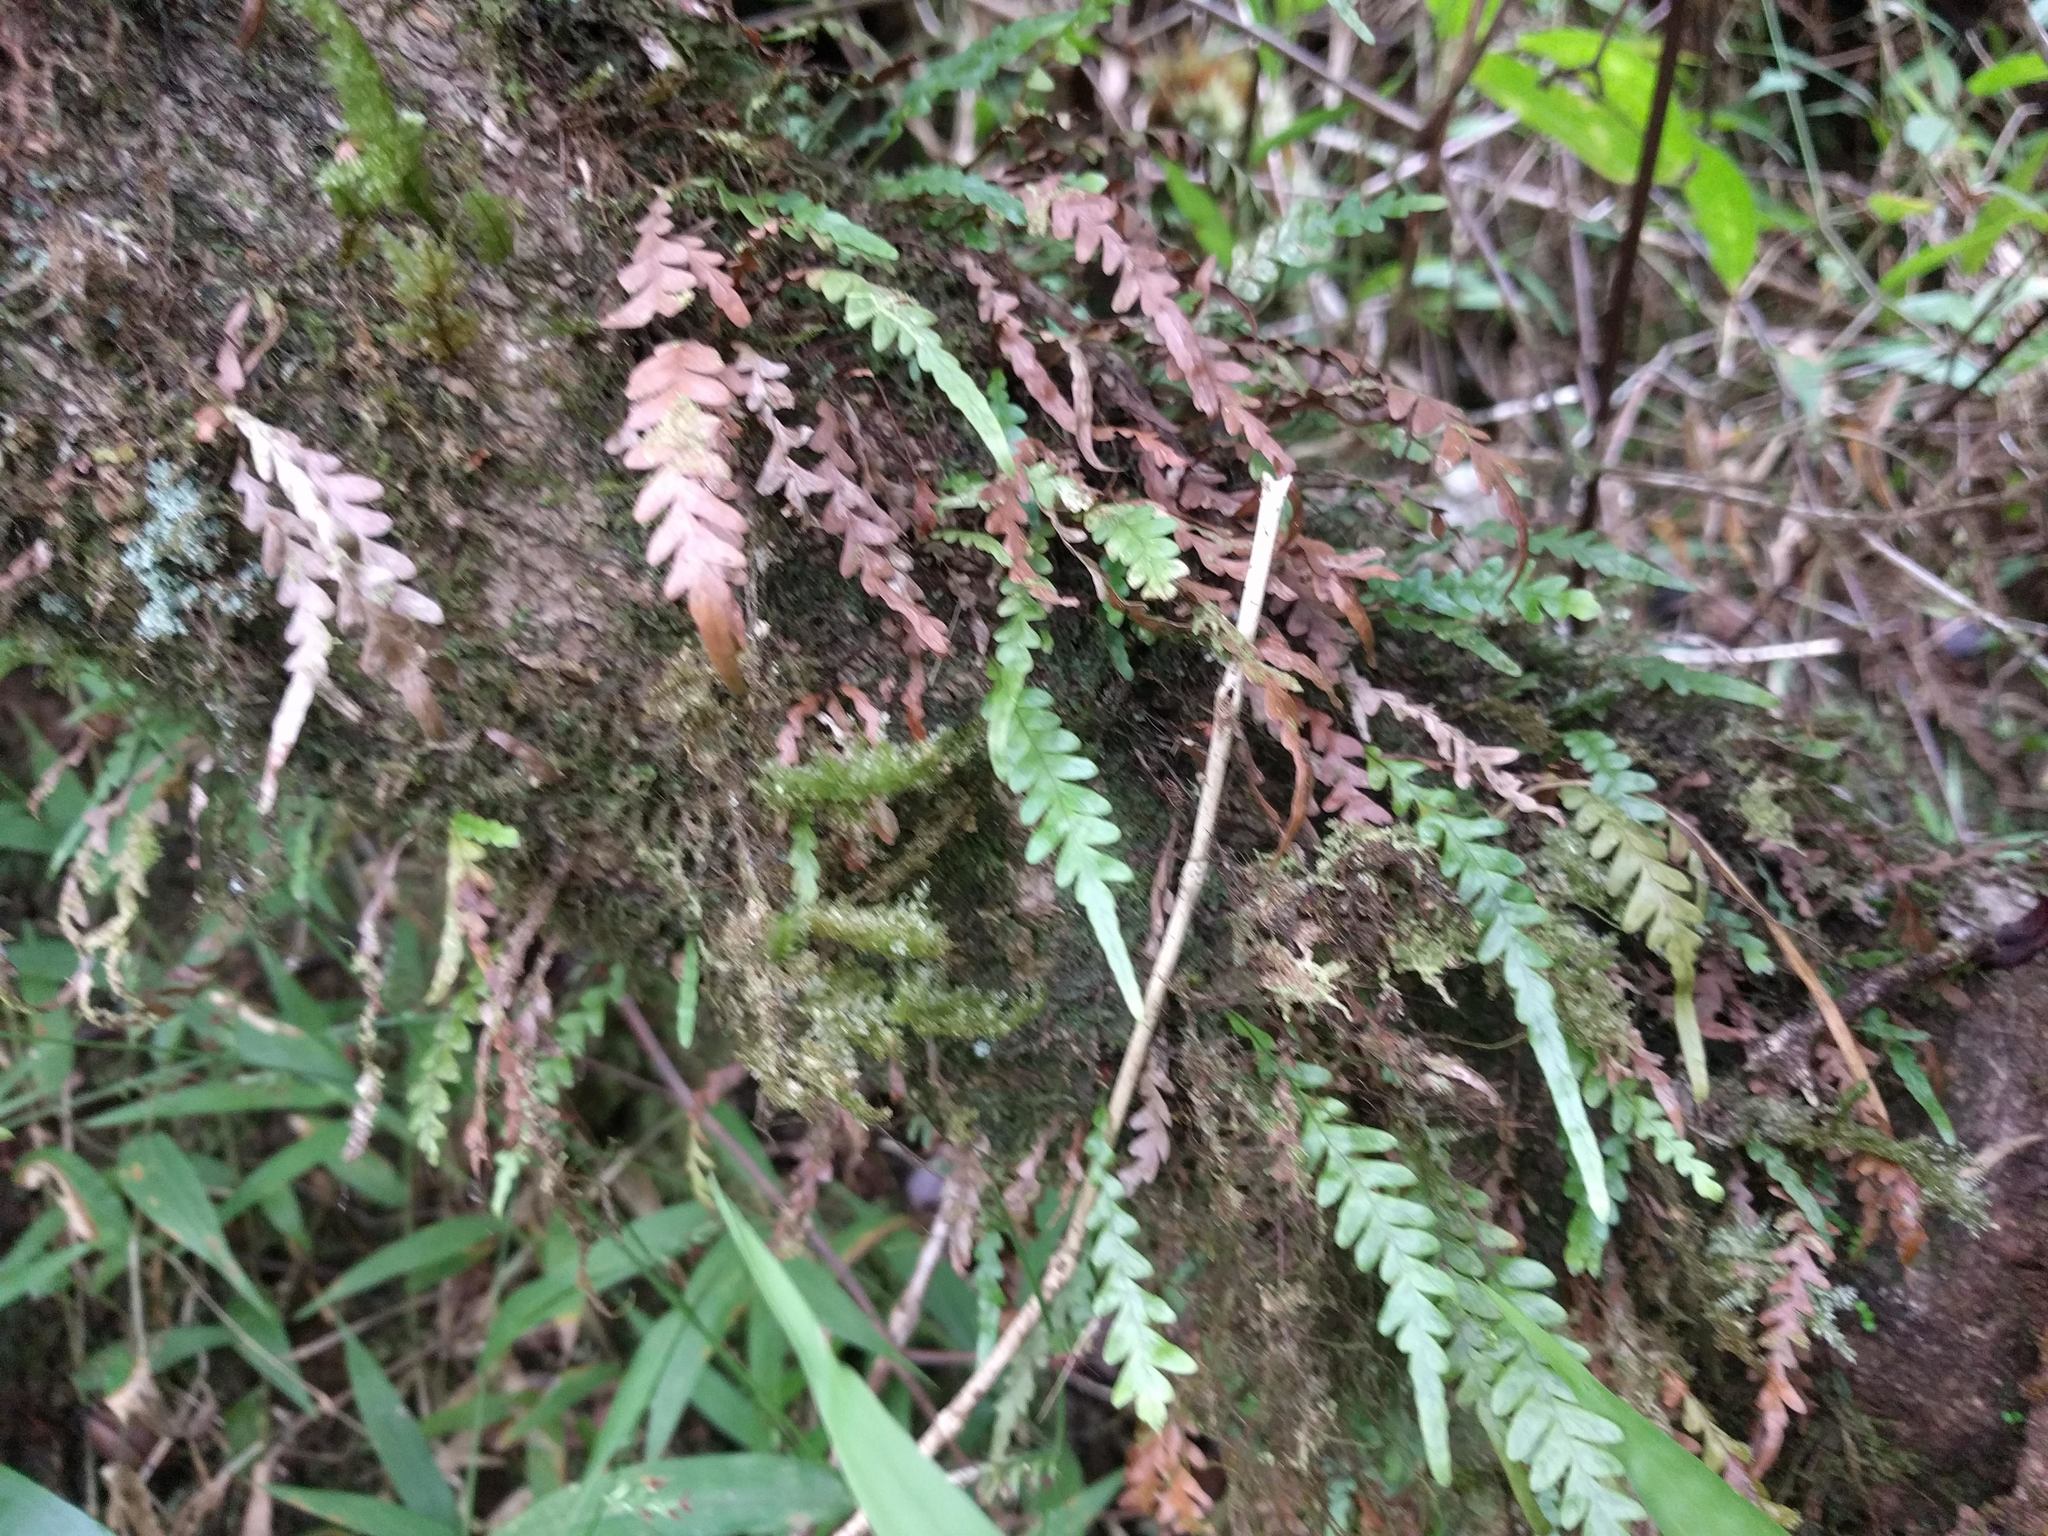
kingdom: Plantae
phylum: Tracheophyta
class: Polypodiopsida
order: Polypodiales
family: Polypodiaceae
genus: Adenophorus
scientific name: Adenophorus pinnatifidus
